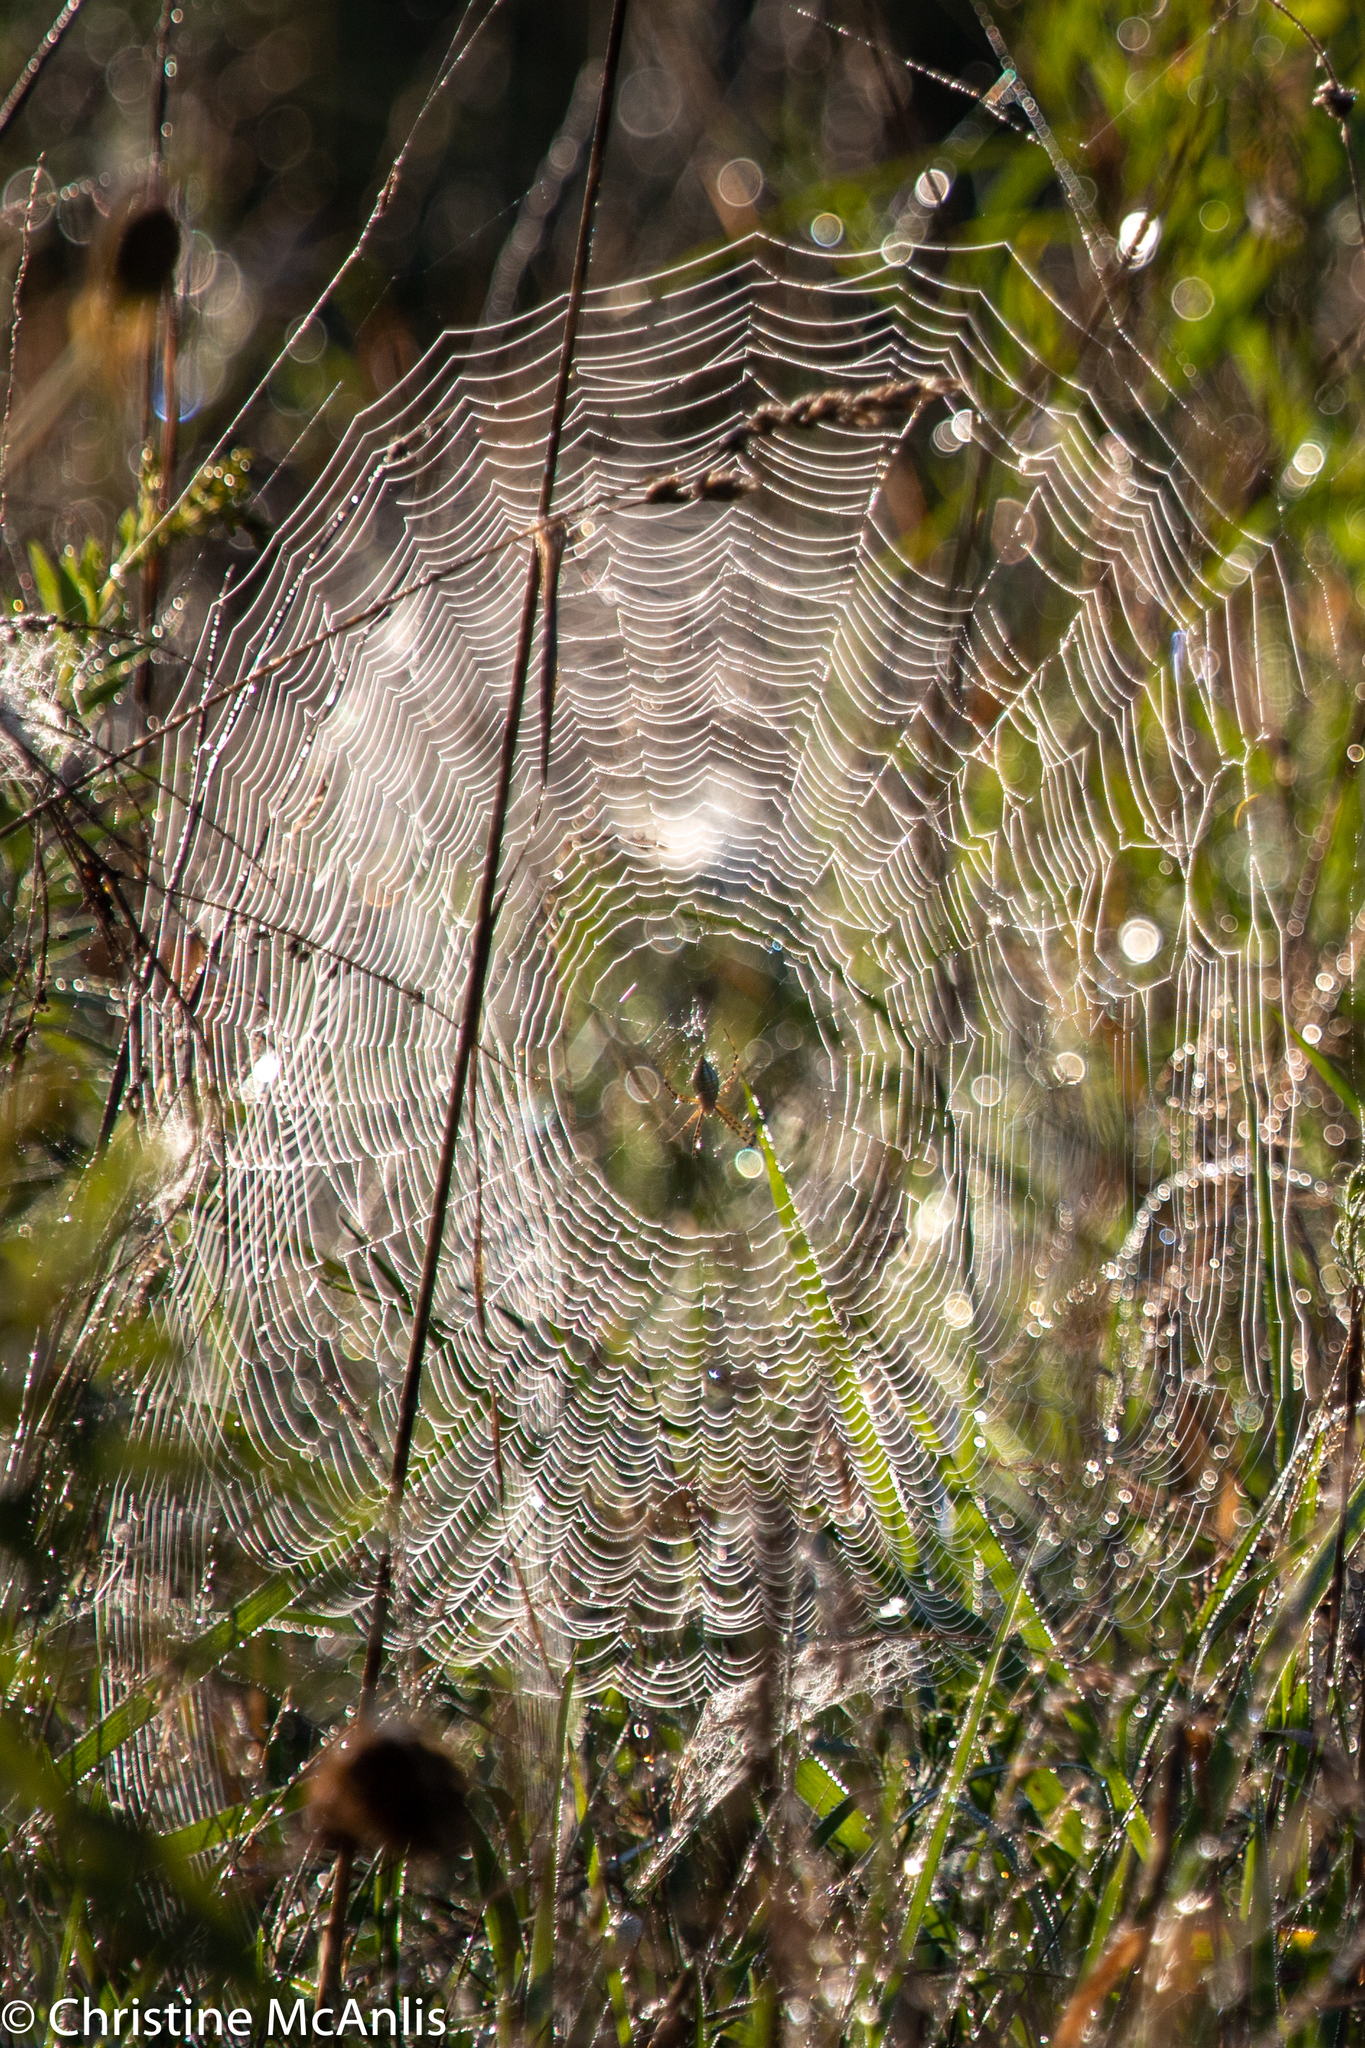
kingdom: Animalia
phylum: Arthropoda
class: Arachnida
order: Araneae
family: Araneidae
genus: Argiope
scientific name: Argiope trifasciata
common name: Banded garden spider
